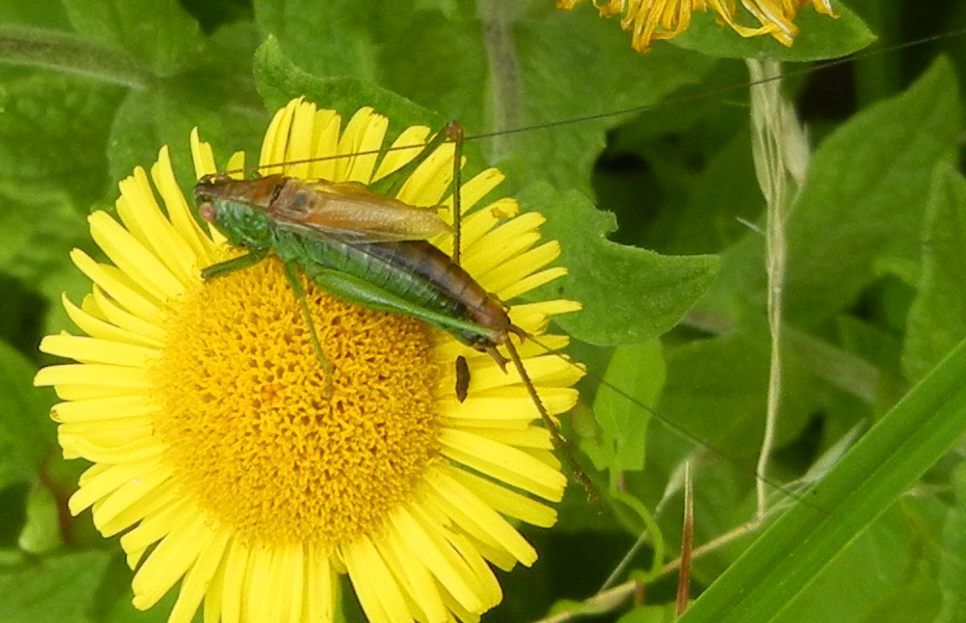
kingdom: Animalia
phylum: Arthropoda
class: Insecta
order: Orthoptera
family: Tettigoniidae
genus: Conocephalus
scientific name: Conocephalus dorsalis
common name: Short-winged conehead
